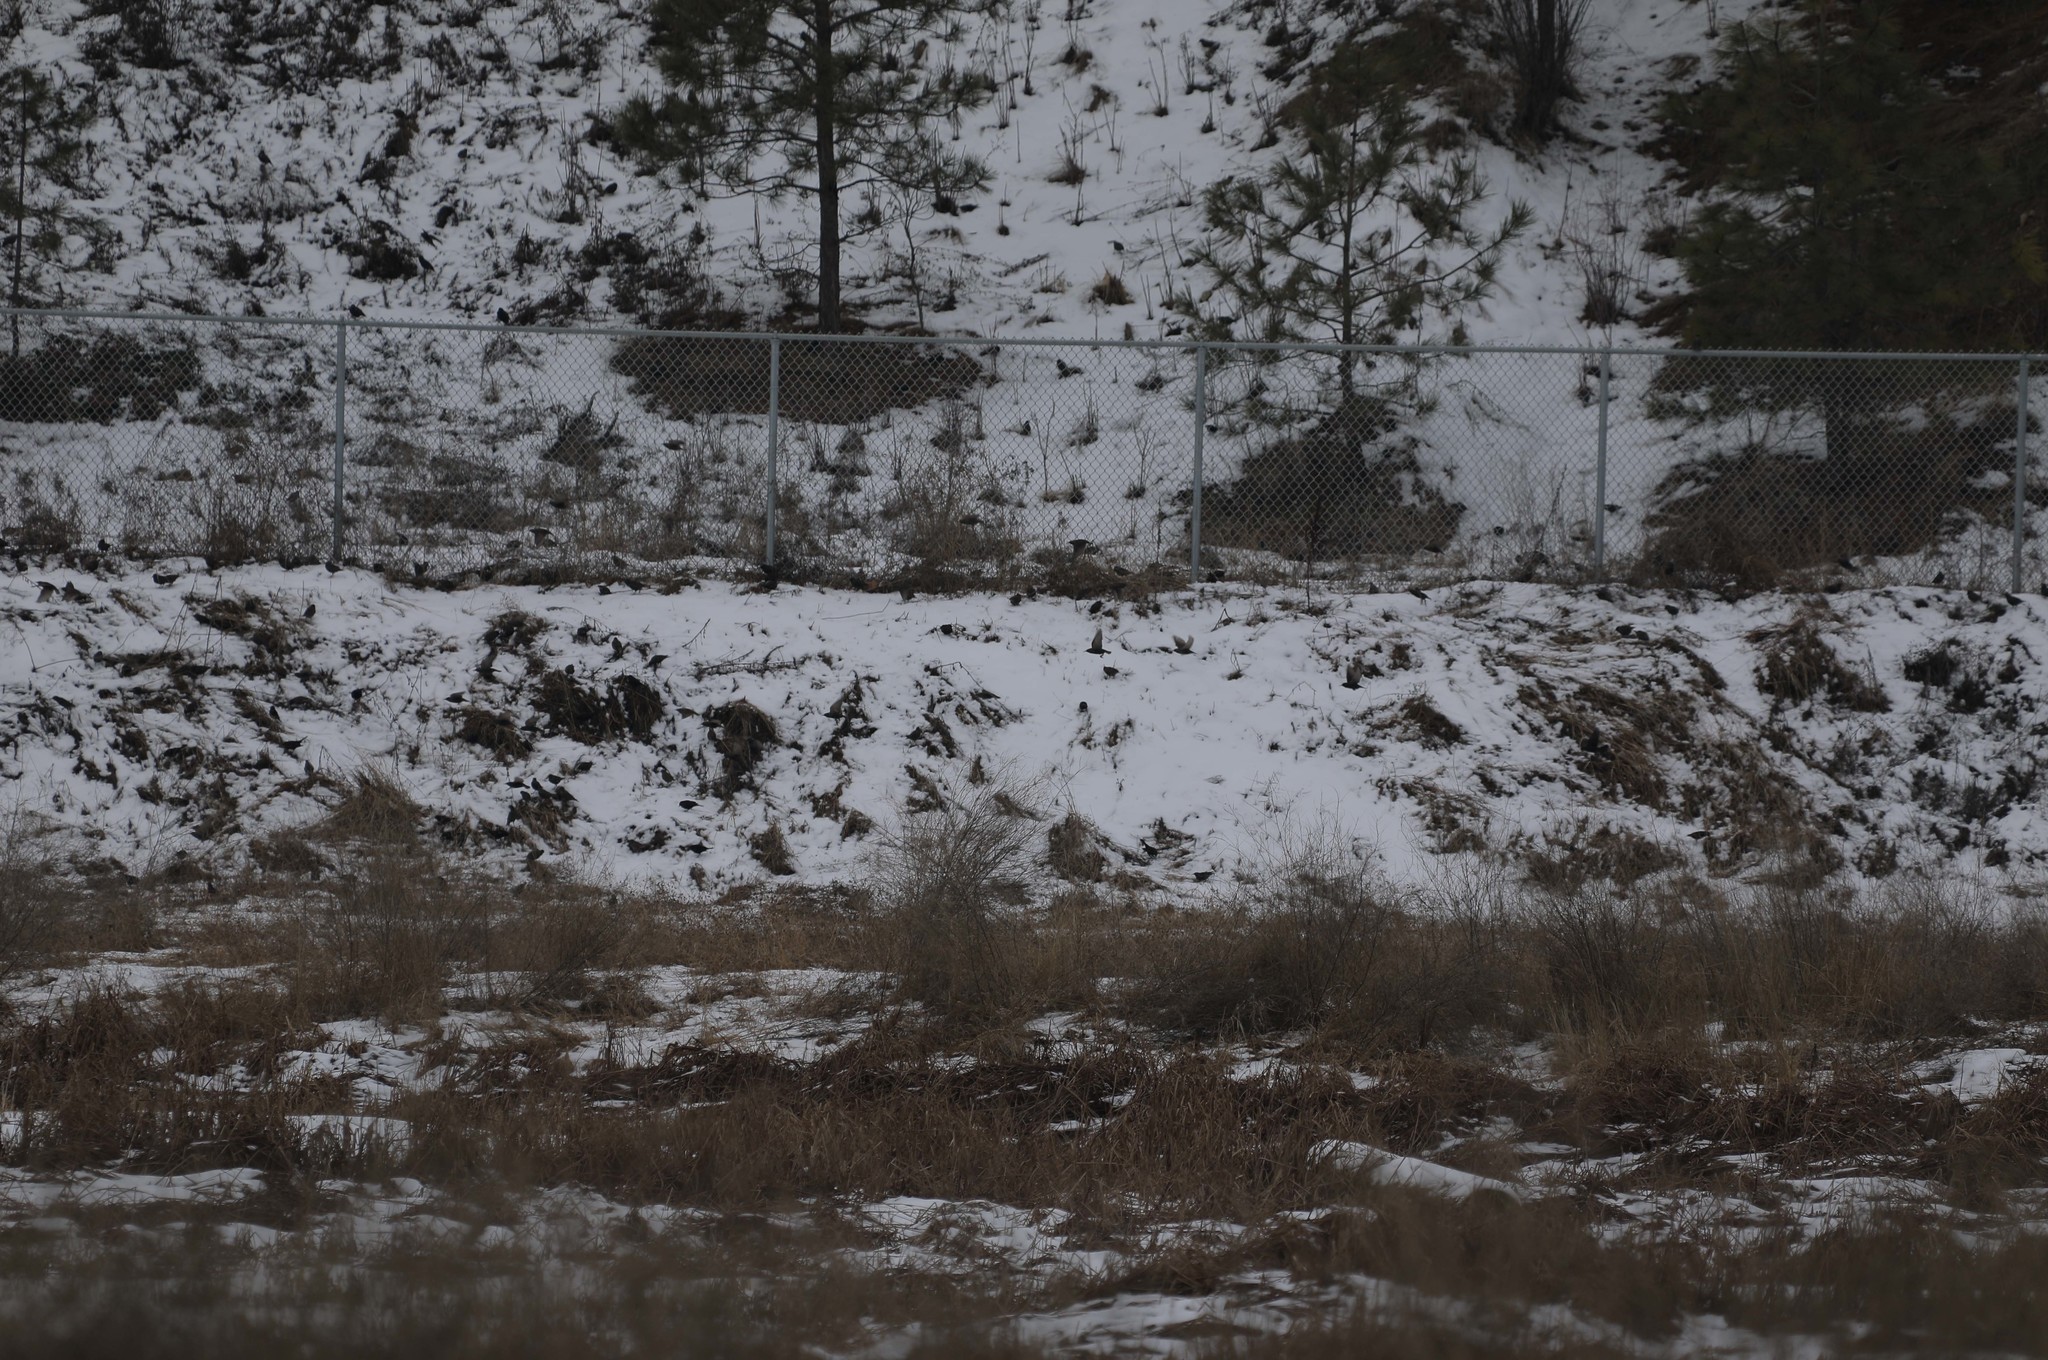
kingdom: Animalia
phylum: Chordata
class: Aves
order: Passeriformes
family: Sturnidae
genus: Sturnus
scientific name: Sturnus vulgaris
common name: Common starling
